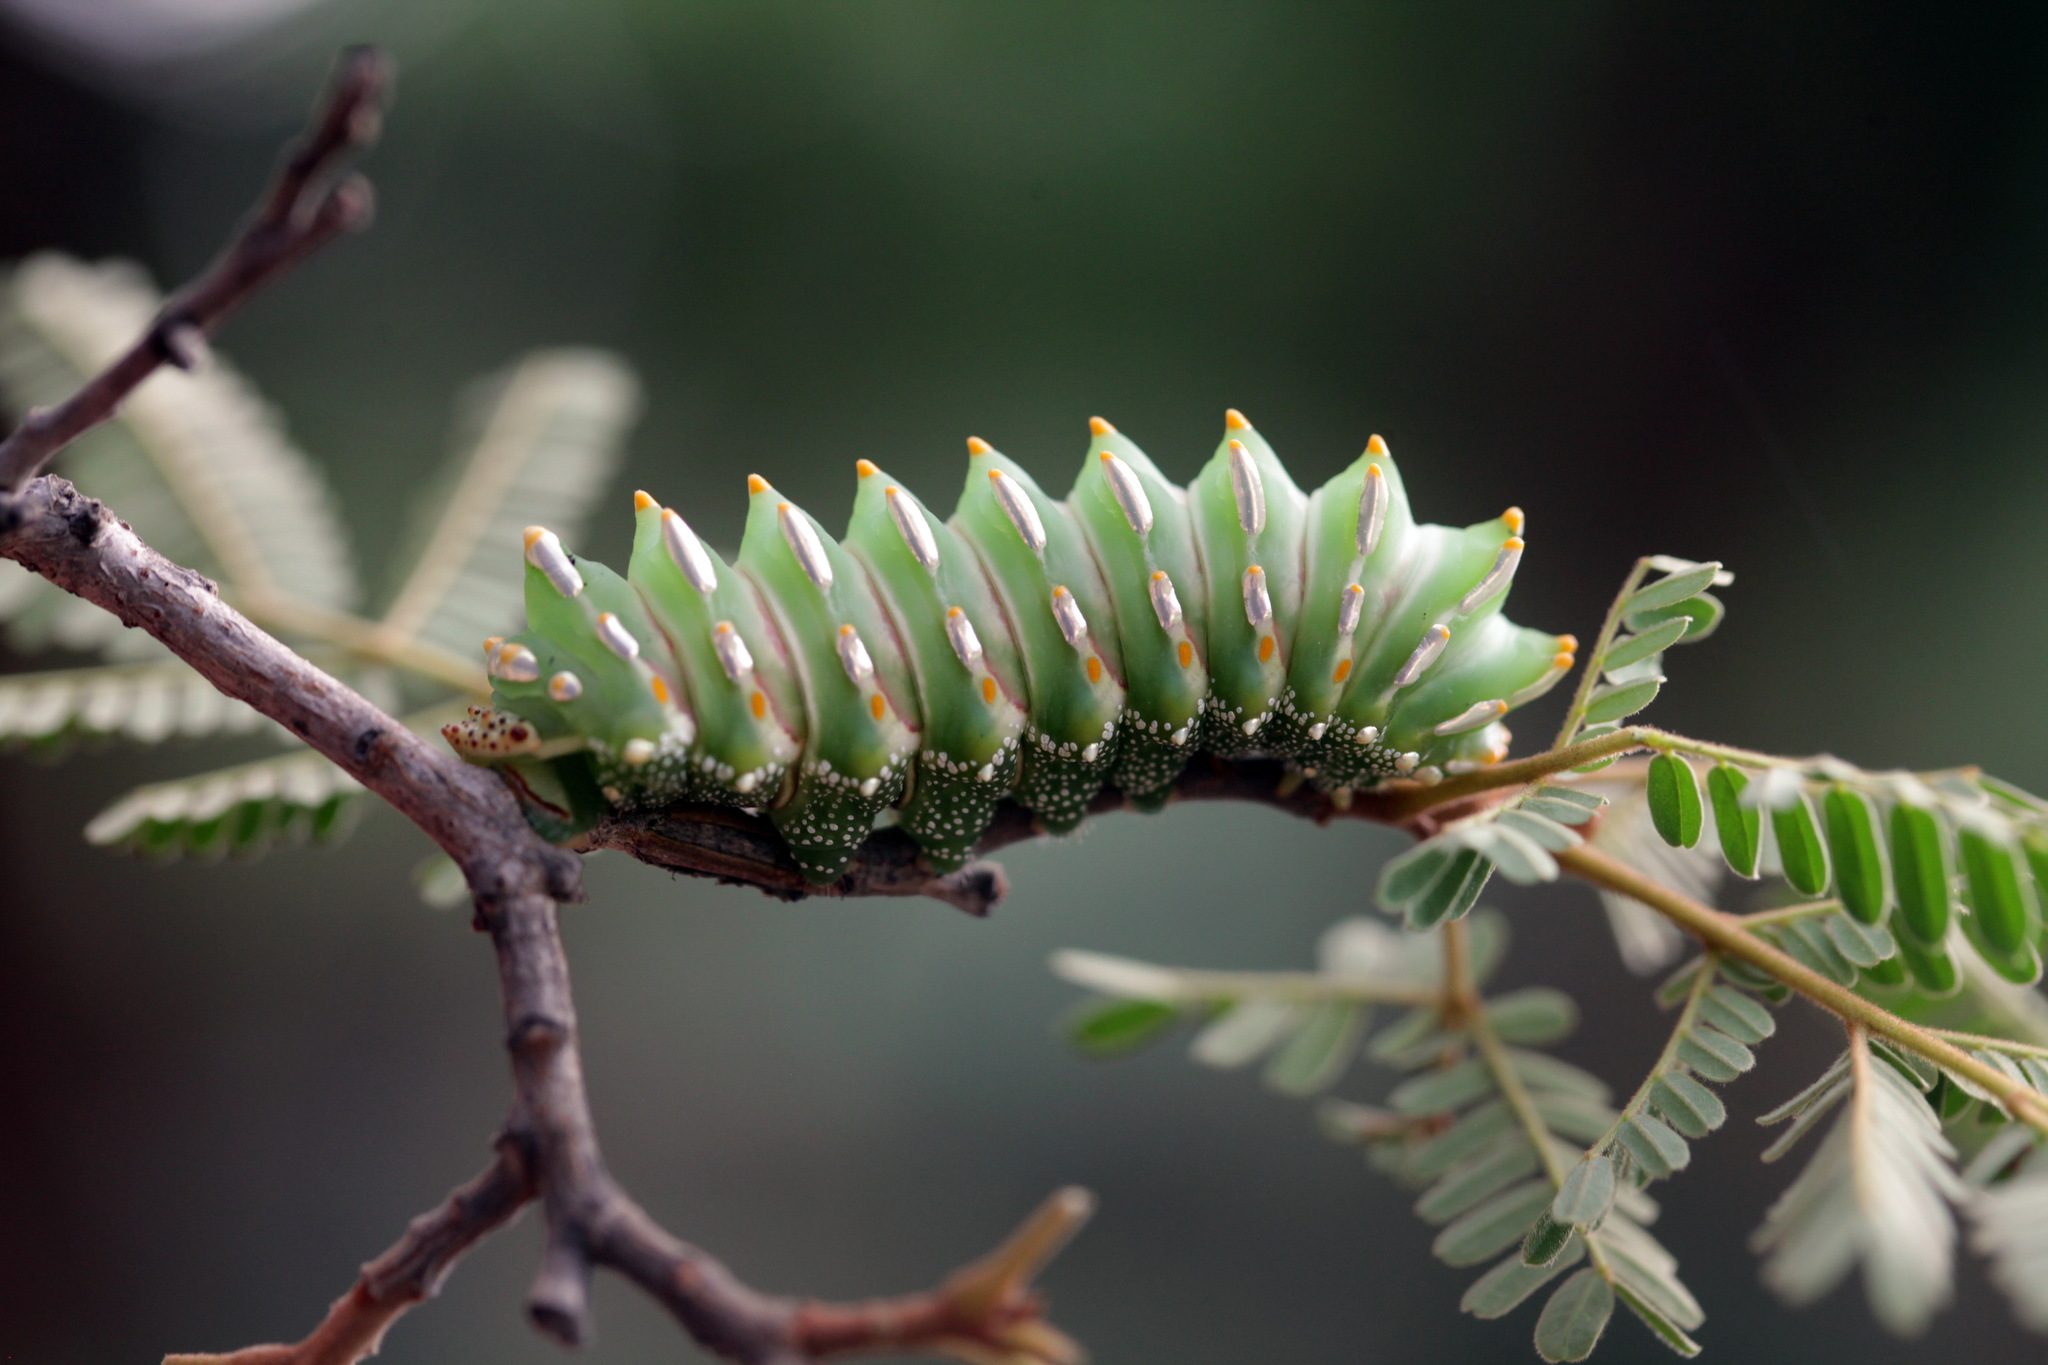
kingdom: Animalia
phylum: Arthropoda
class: Insecta
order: Lepidoptera
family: Saturniidae
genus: Aurivillius
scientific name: Aurivillius fusca
